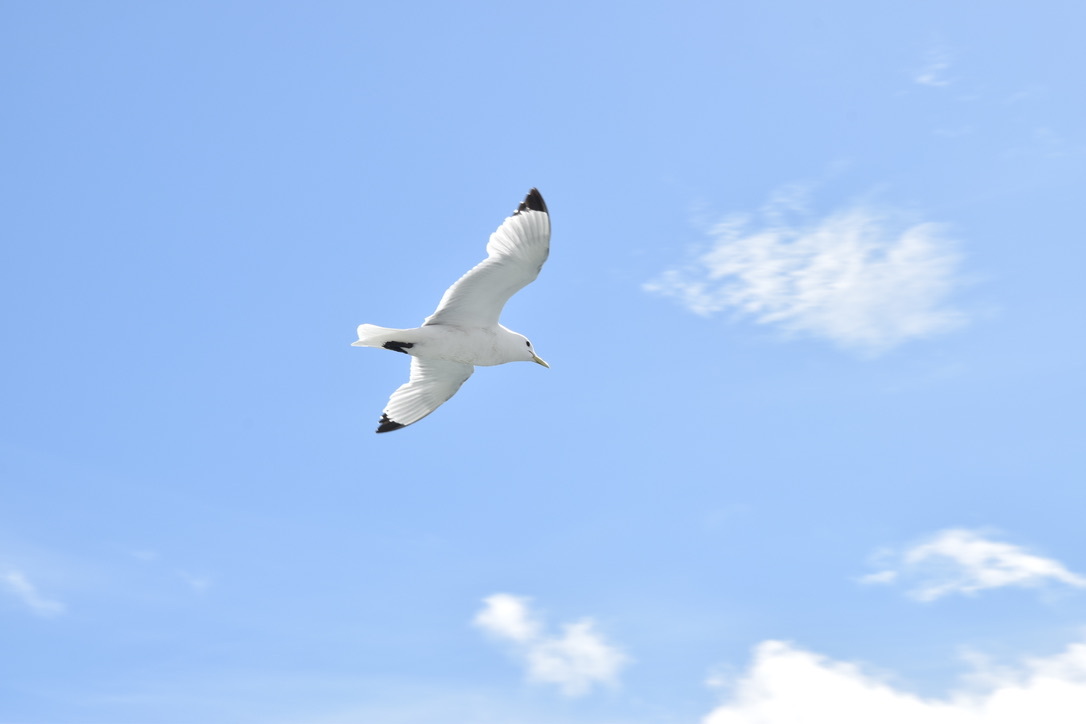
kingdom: Animalia
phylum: Chordata
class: Aves
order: Charadriiformes
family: Laridae
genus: Rissa
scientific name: Rissa tridactyla
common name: Black-legged kittiwake
